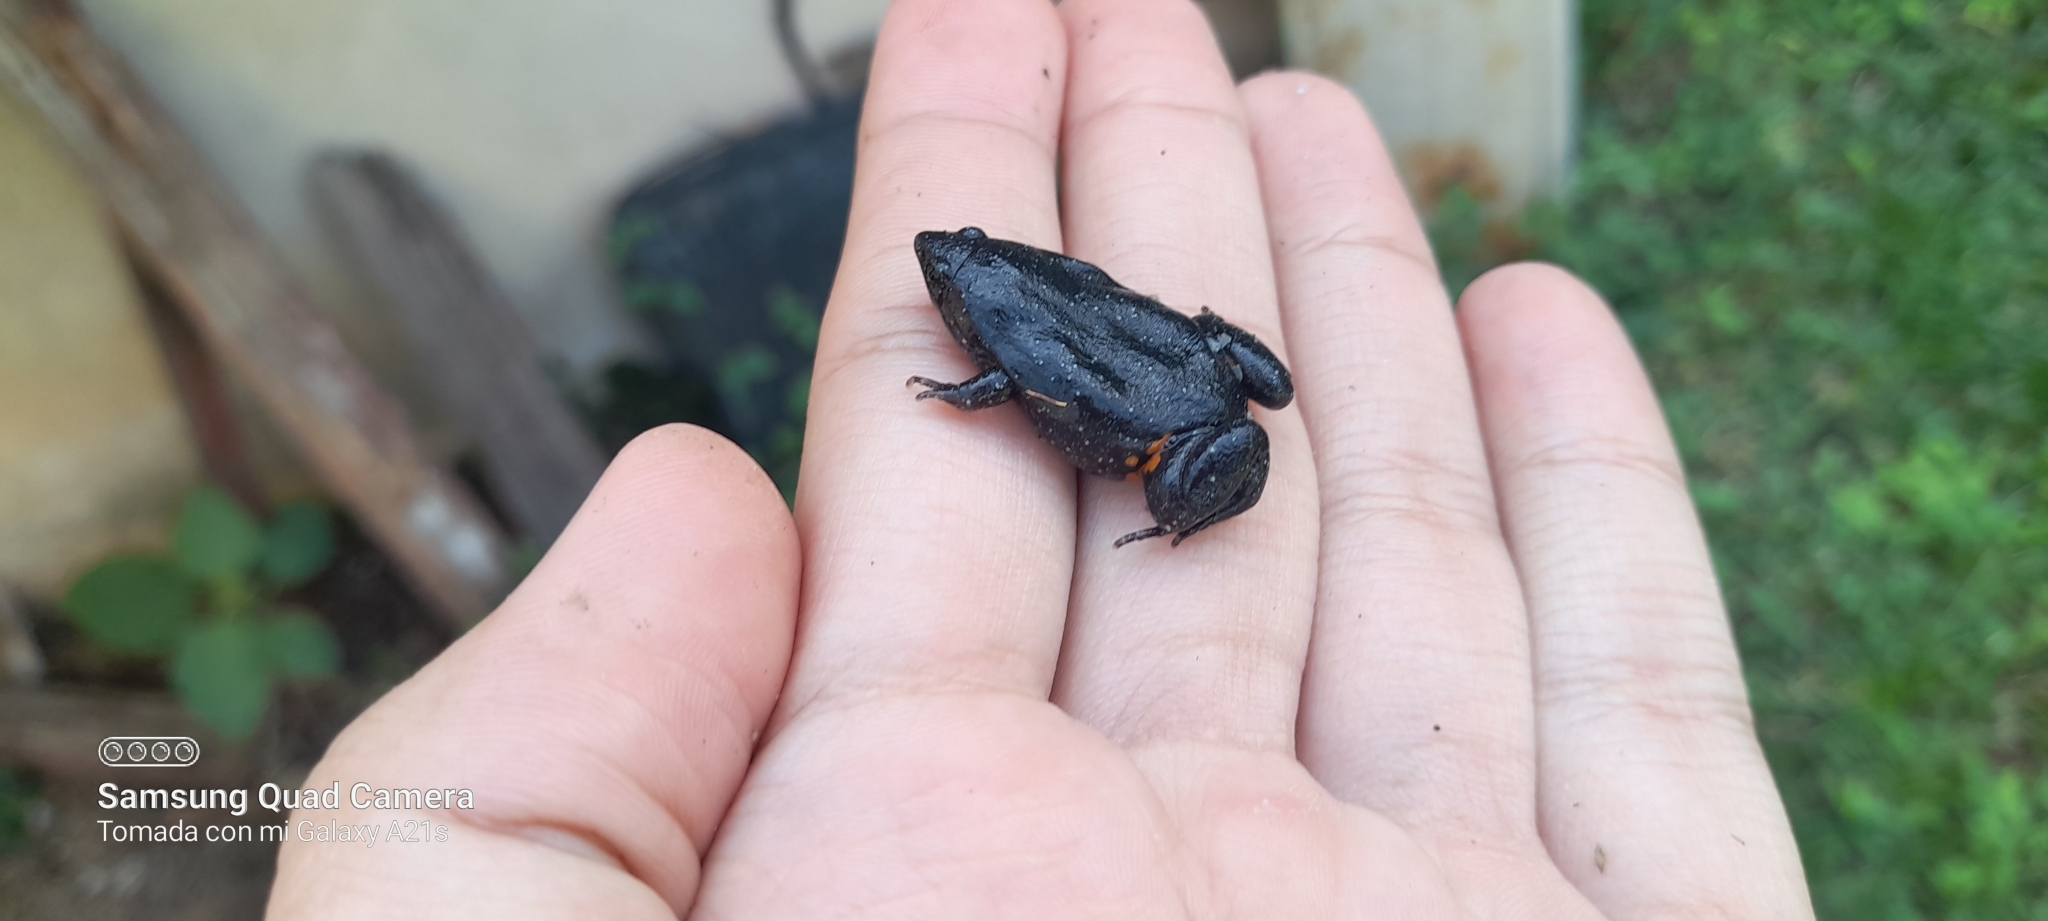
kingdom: Animalia
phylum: Chordata
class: Amphibia
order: Anura
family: Microhylidae
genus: Elachistocleis
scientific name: Elachistocleis pearsei
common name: Colombian plump frog
